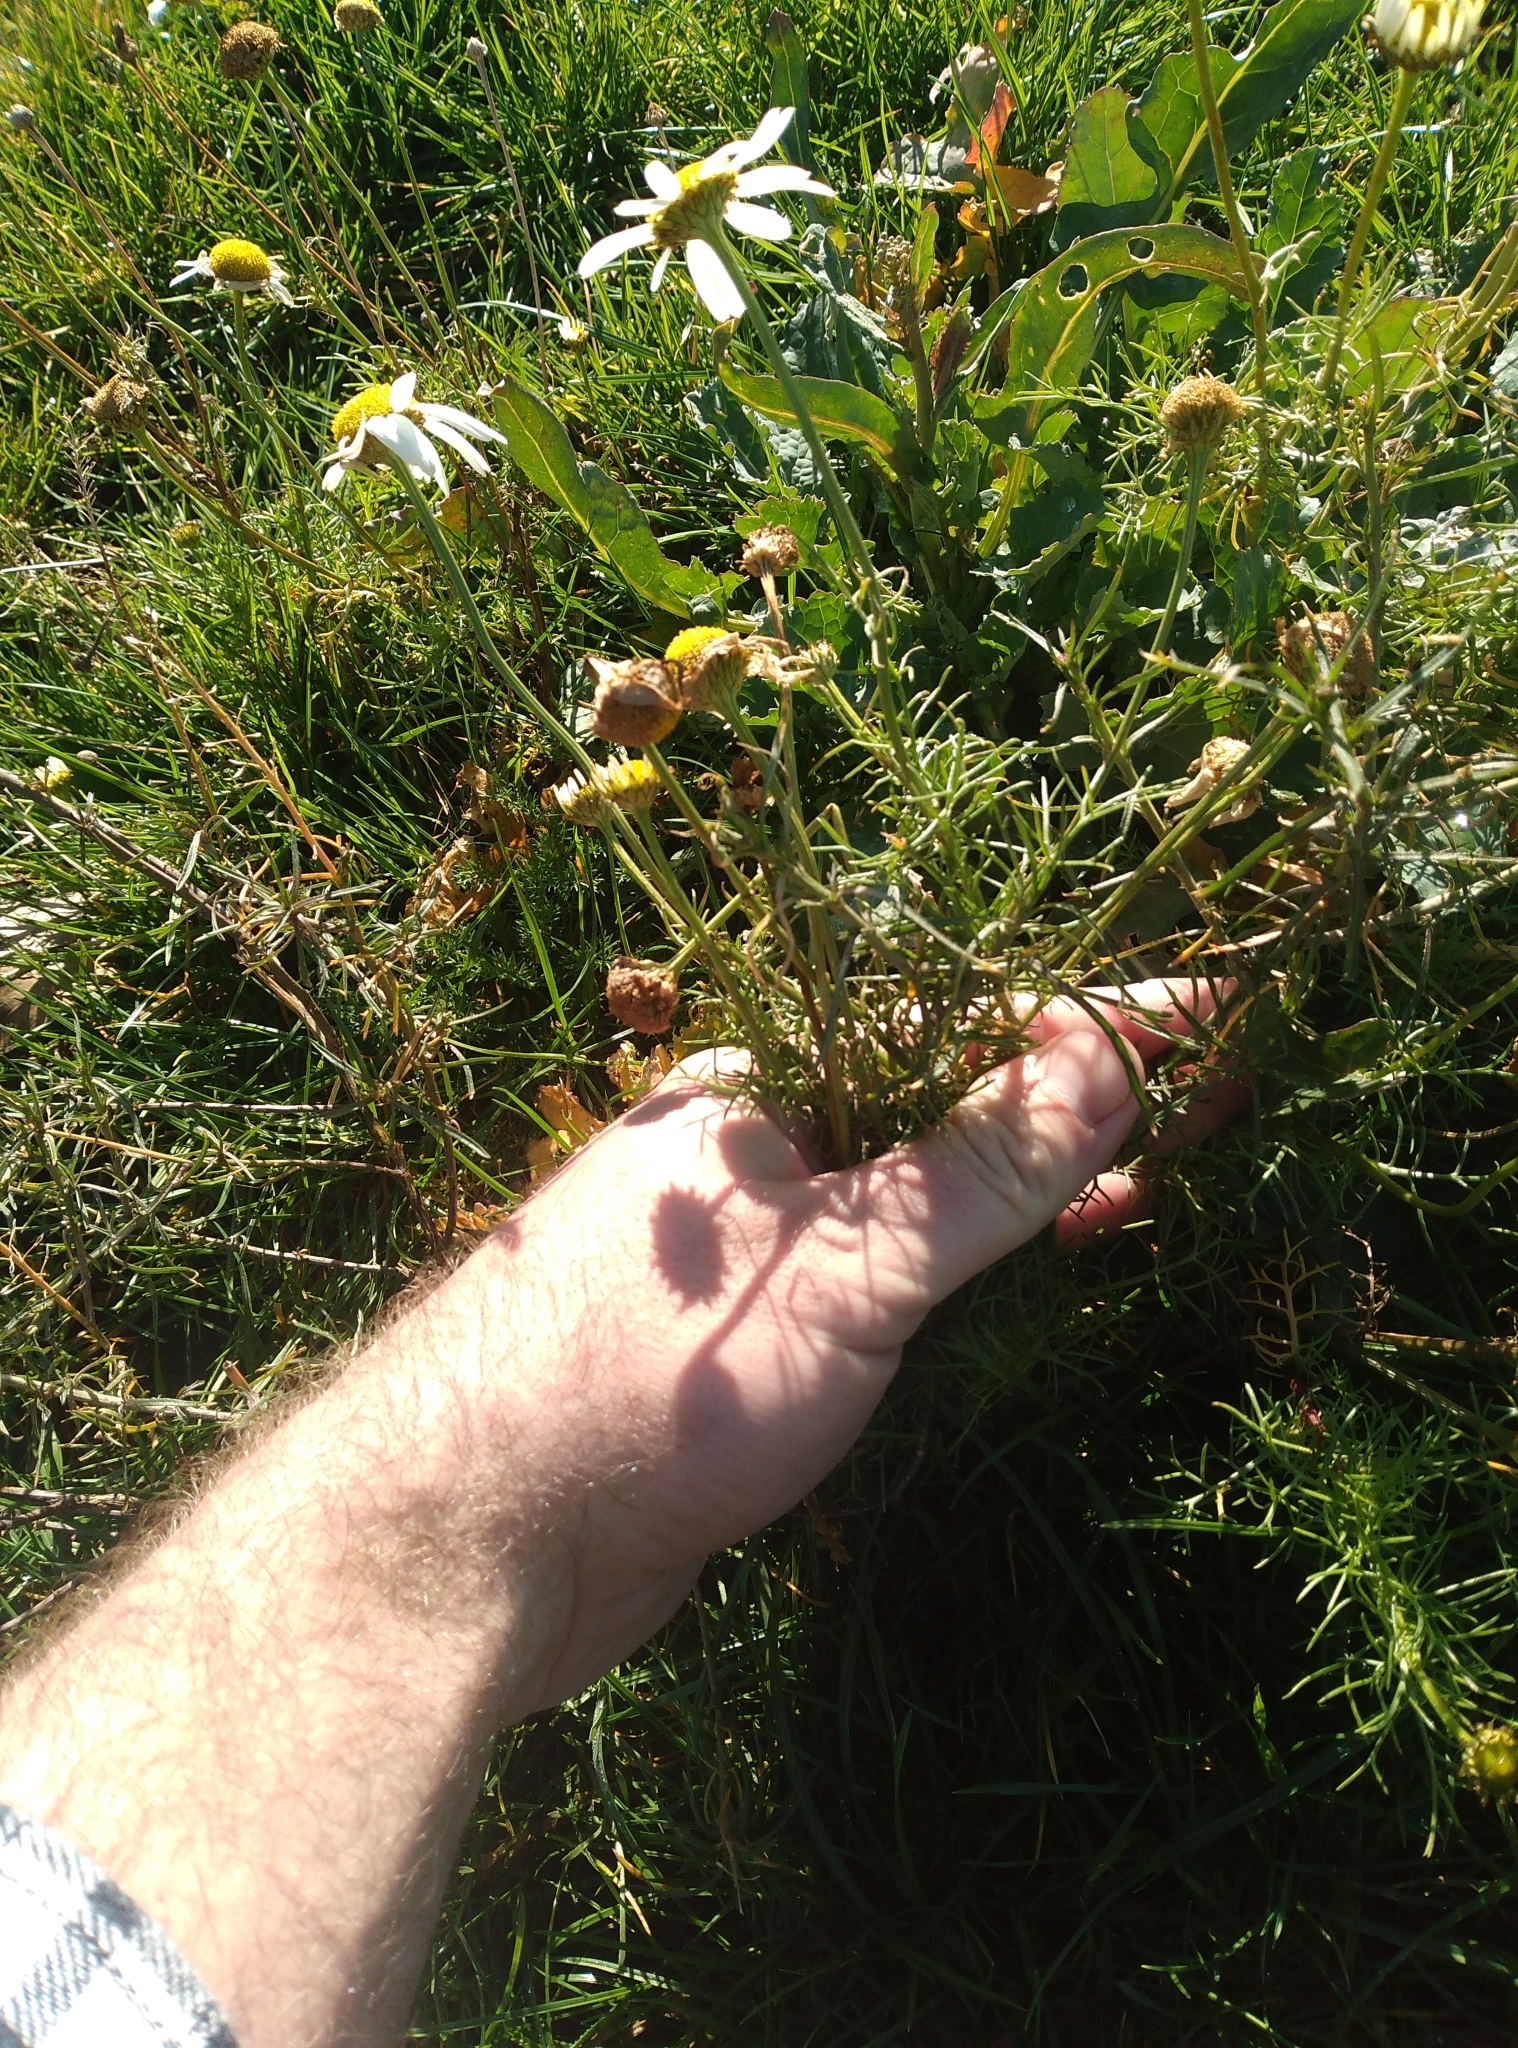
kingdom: Plantae
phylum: Tracheophyta
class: Magnoliopsida
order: Asterales
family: Asteraceae
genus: Tripleurospermum
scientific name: Tripleurospermum inodorum
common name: Scentless mayweed
